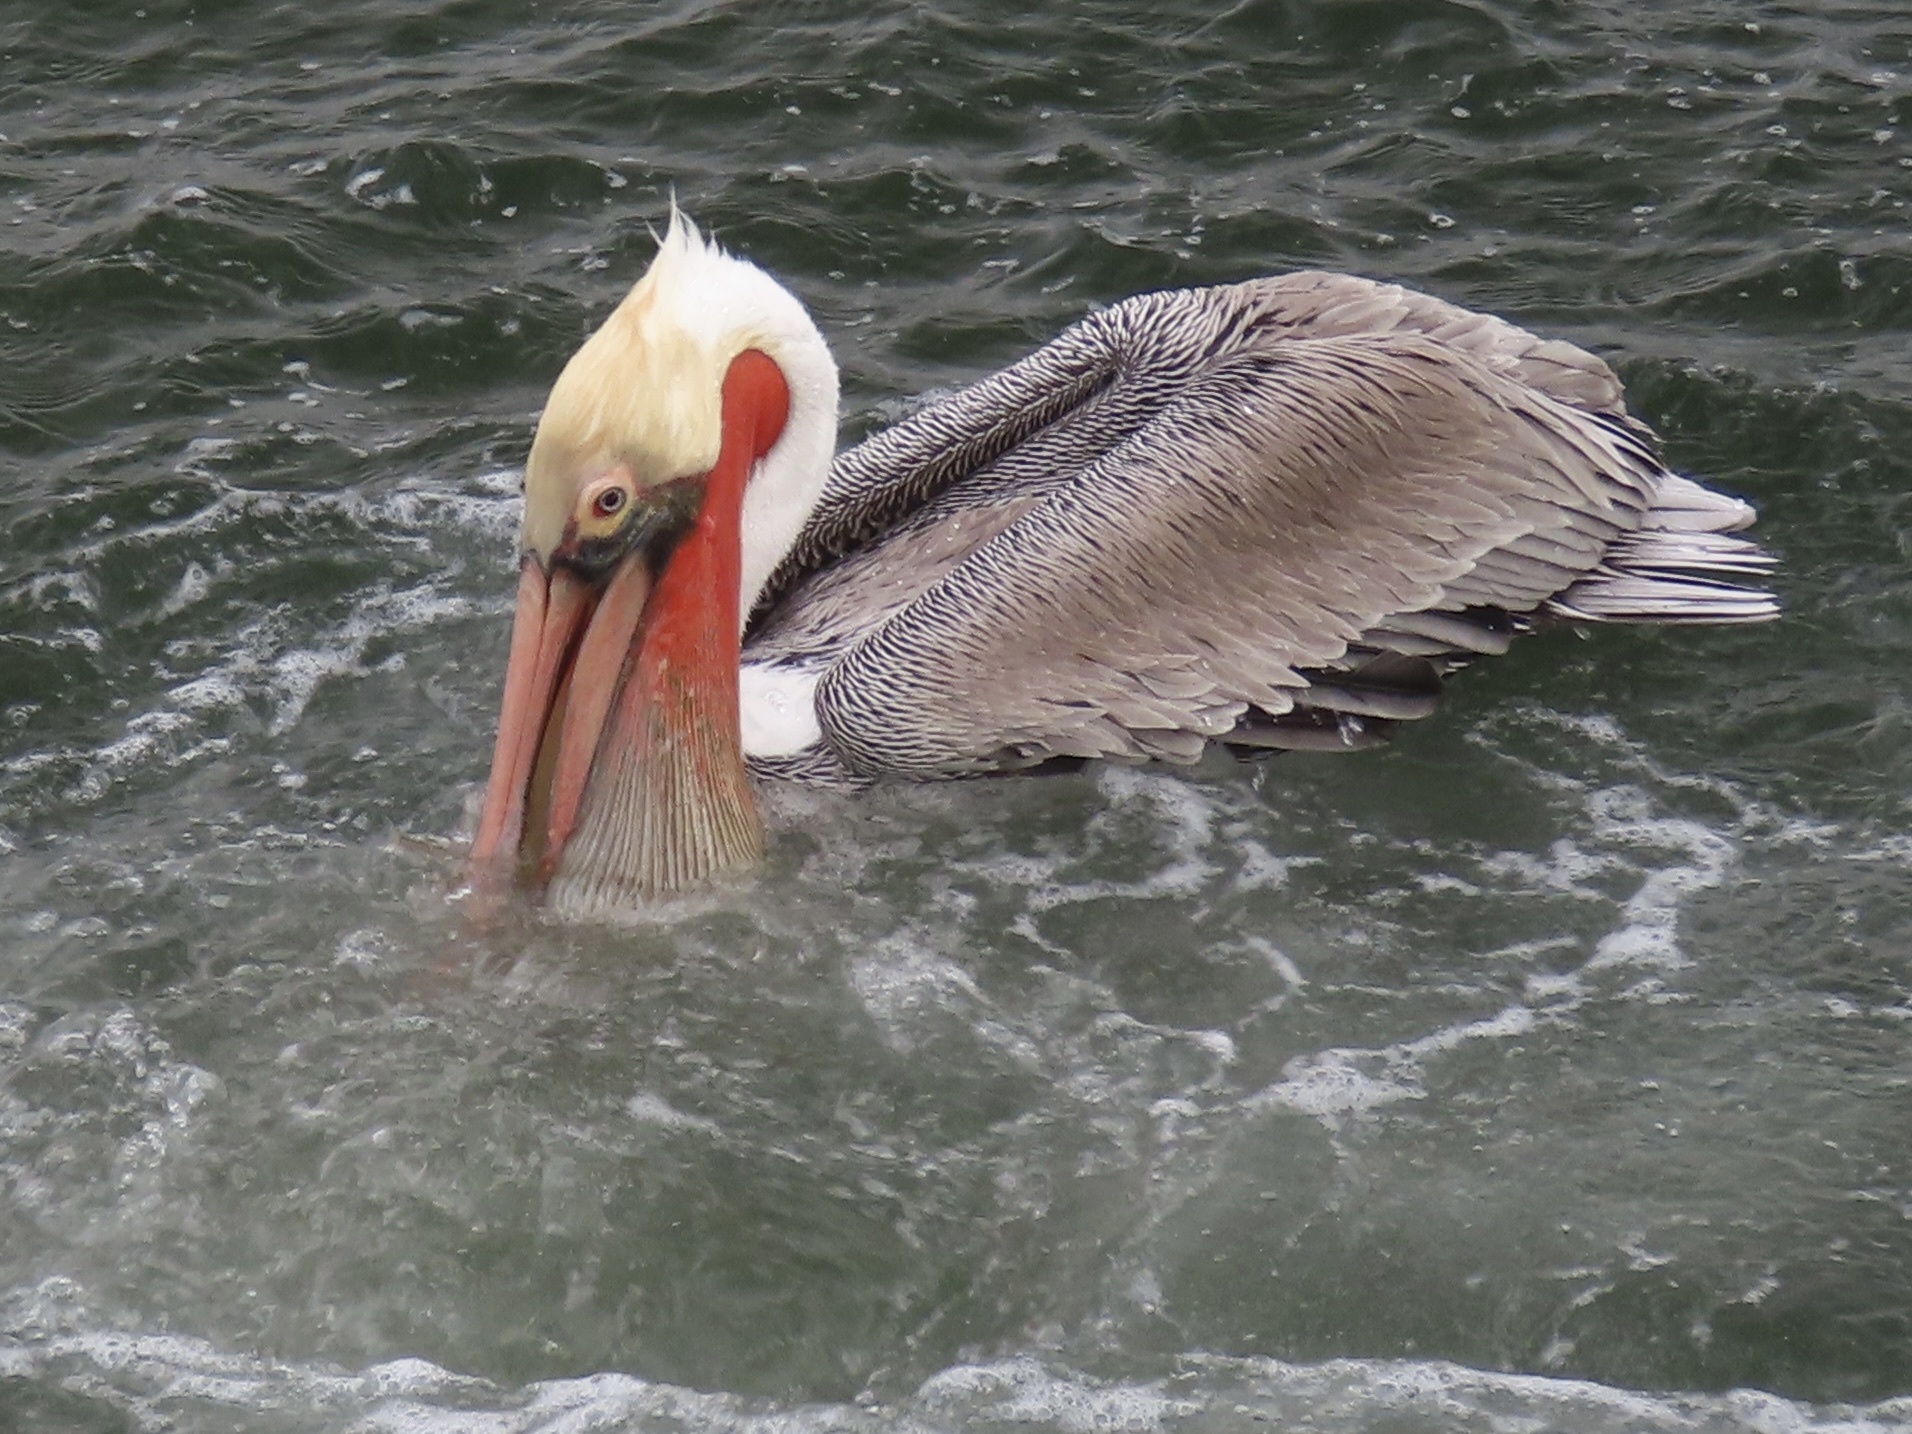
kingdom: Animalia
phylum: Chordata
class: Aves
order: Pelecaniformes
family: Pelecanidae
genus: Pelecanus
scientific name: Pelecanus occidentalis
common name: Brown pelican
